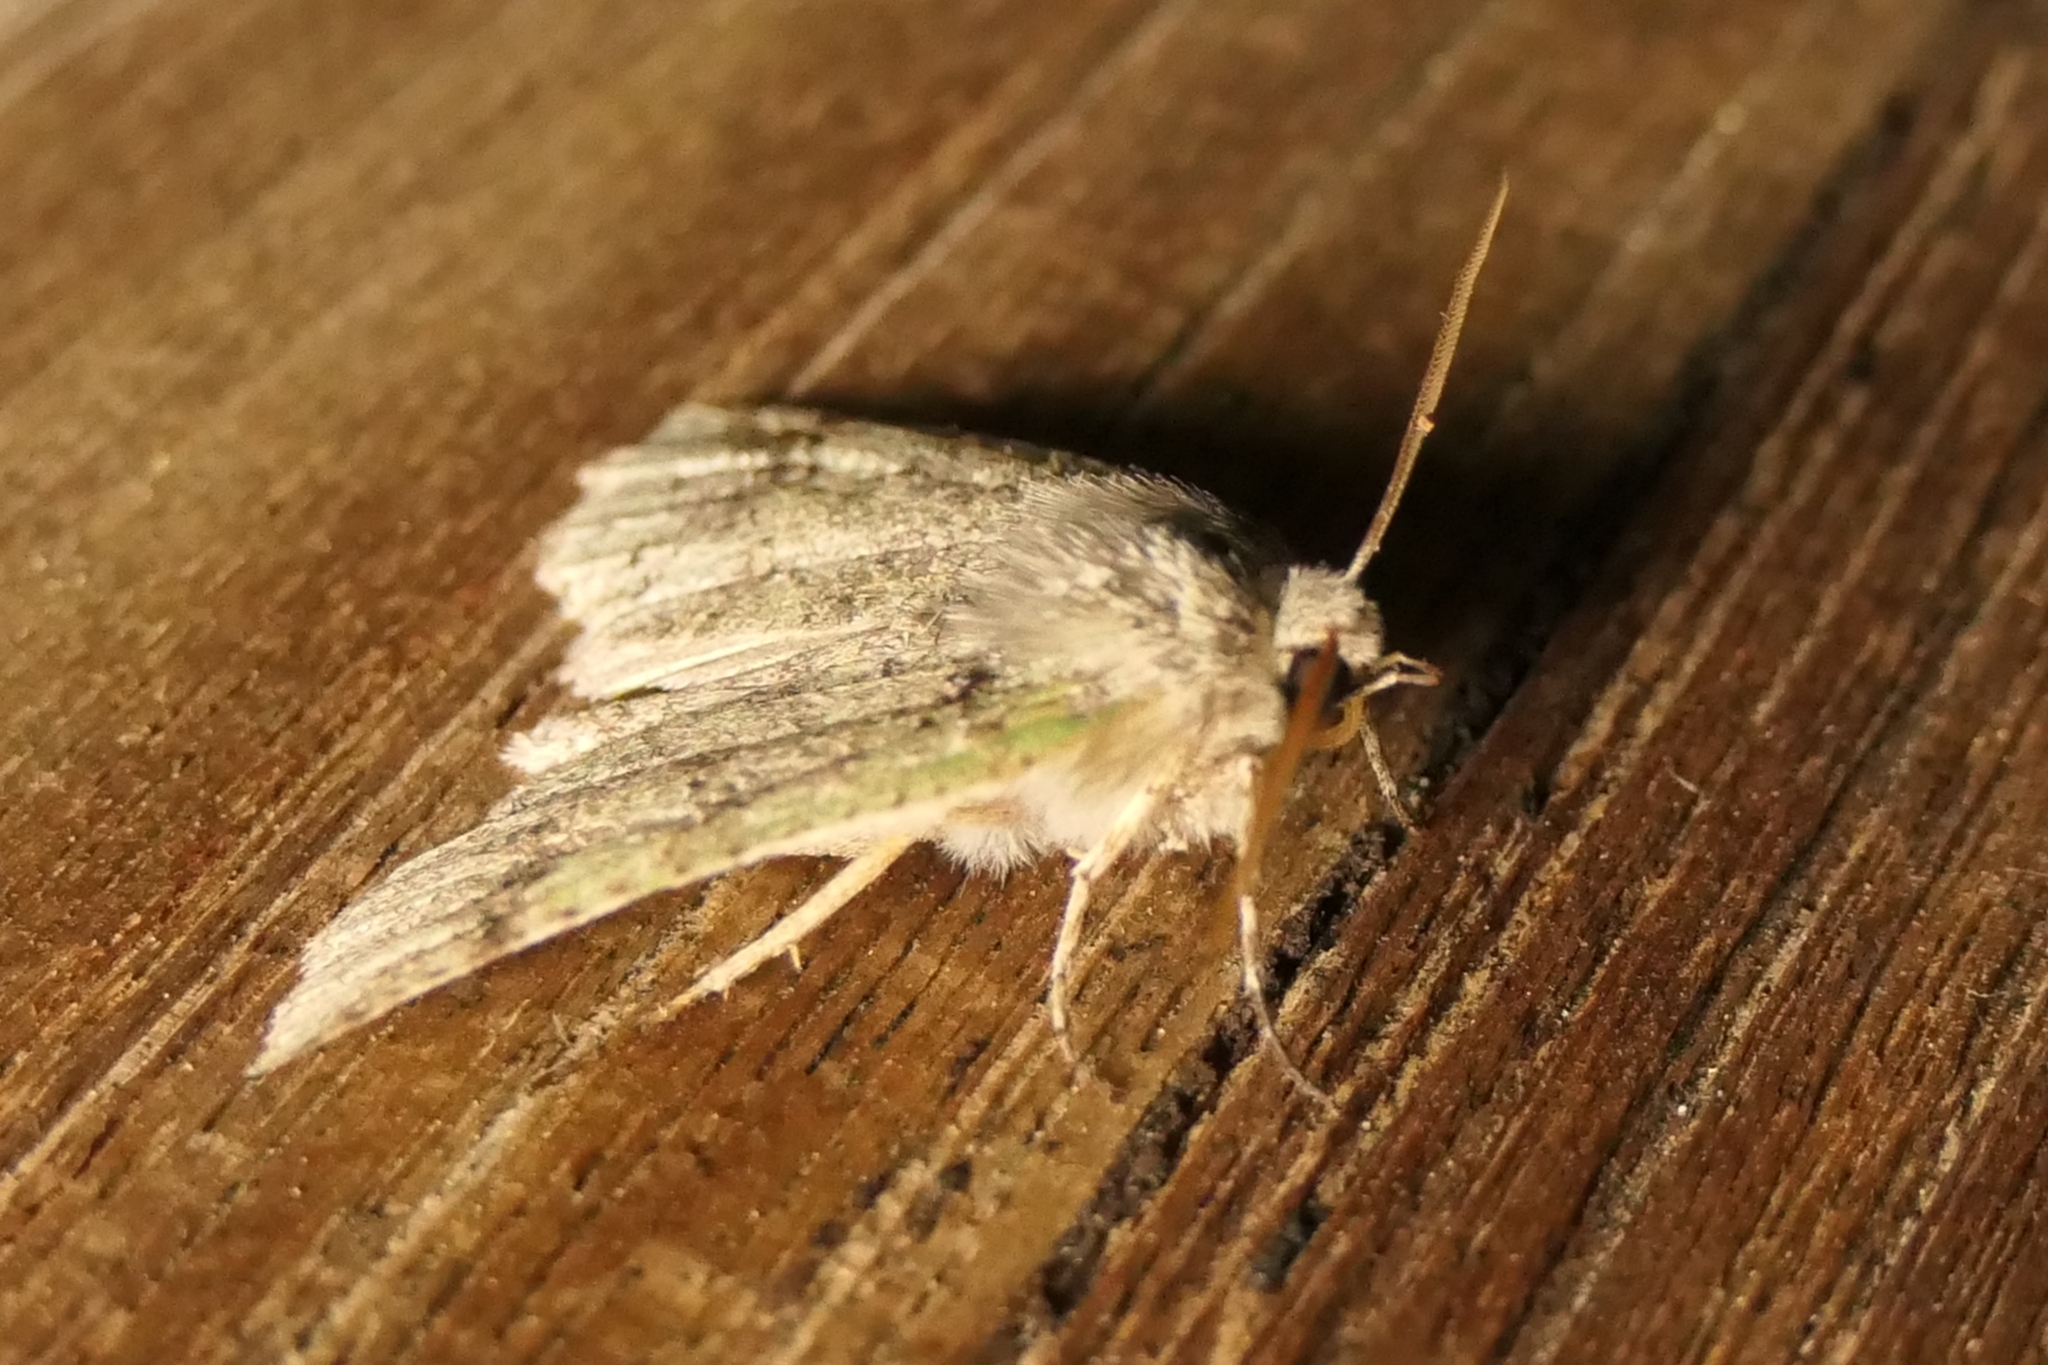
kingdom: Animalia
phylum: Arthropoda
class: Insecta
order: Lepidoptera
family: Geometridae
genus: Declana
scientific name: Declana floccosa
